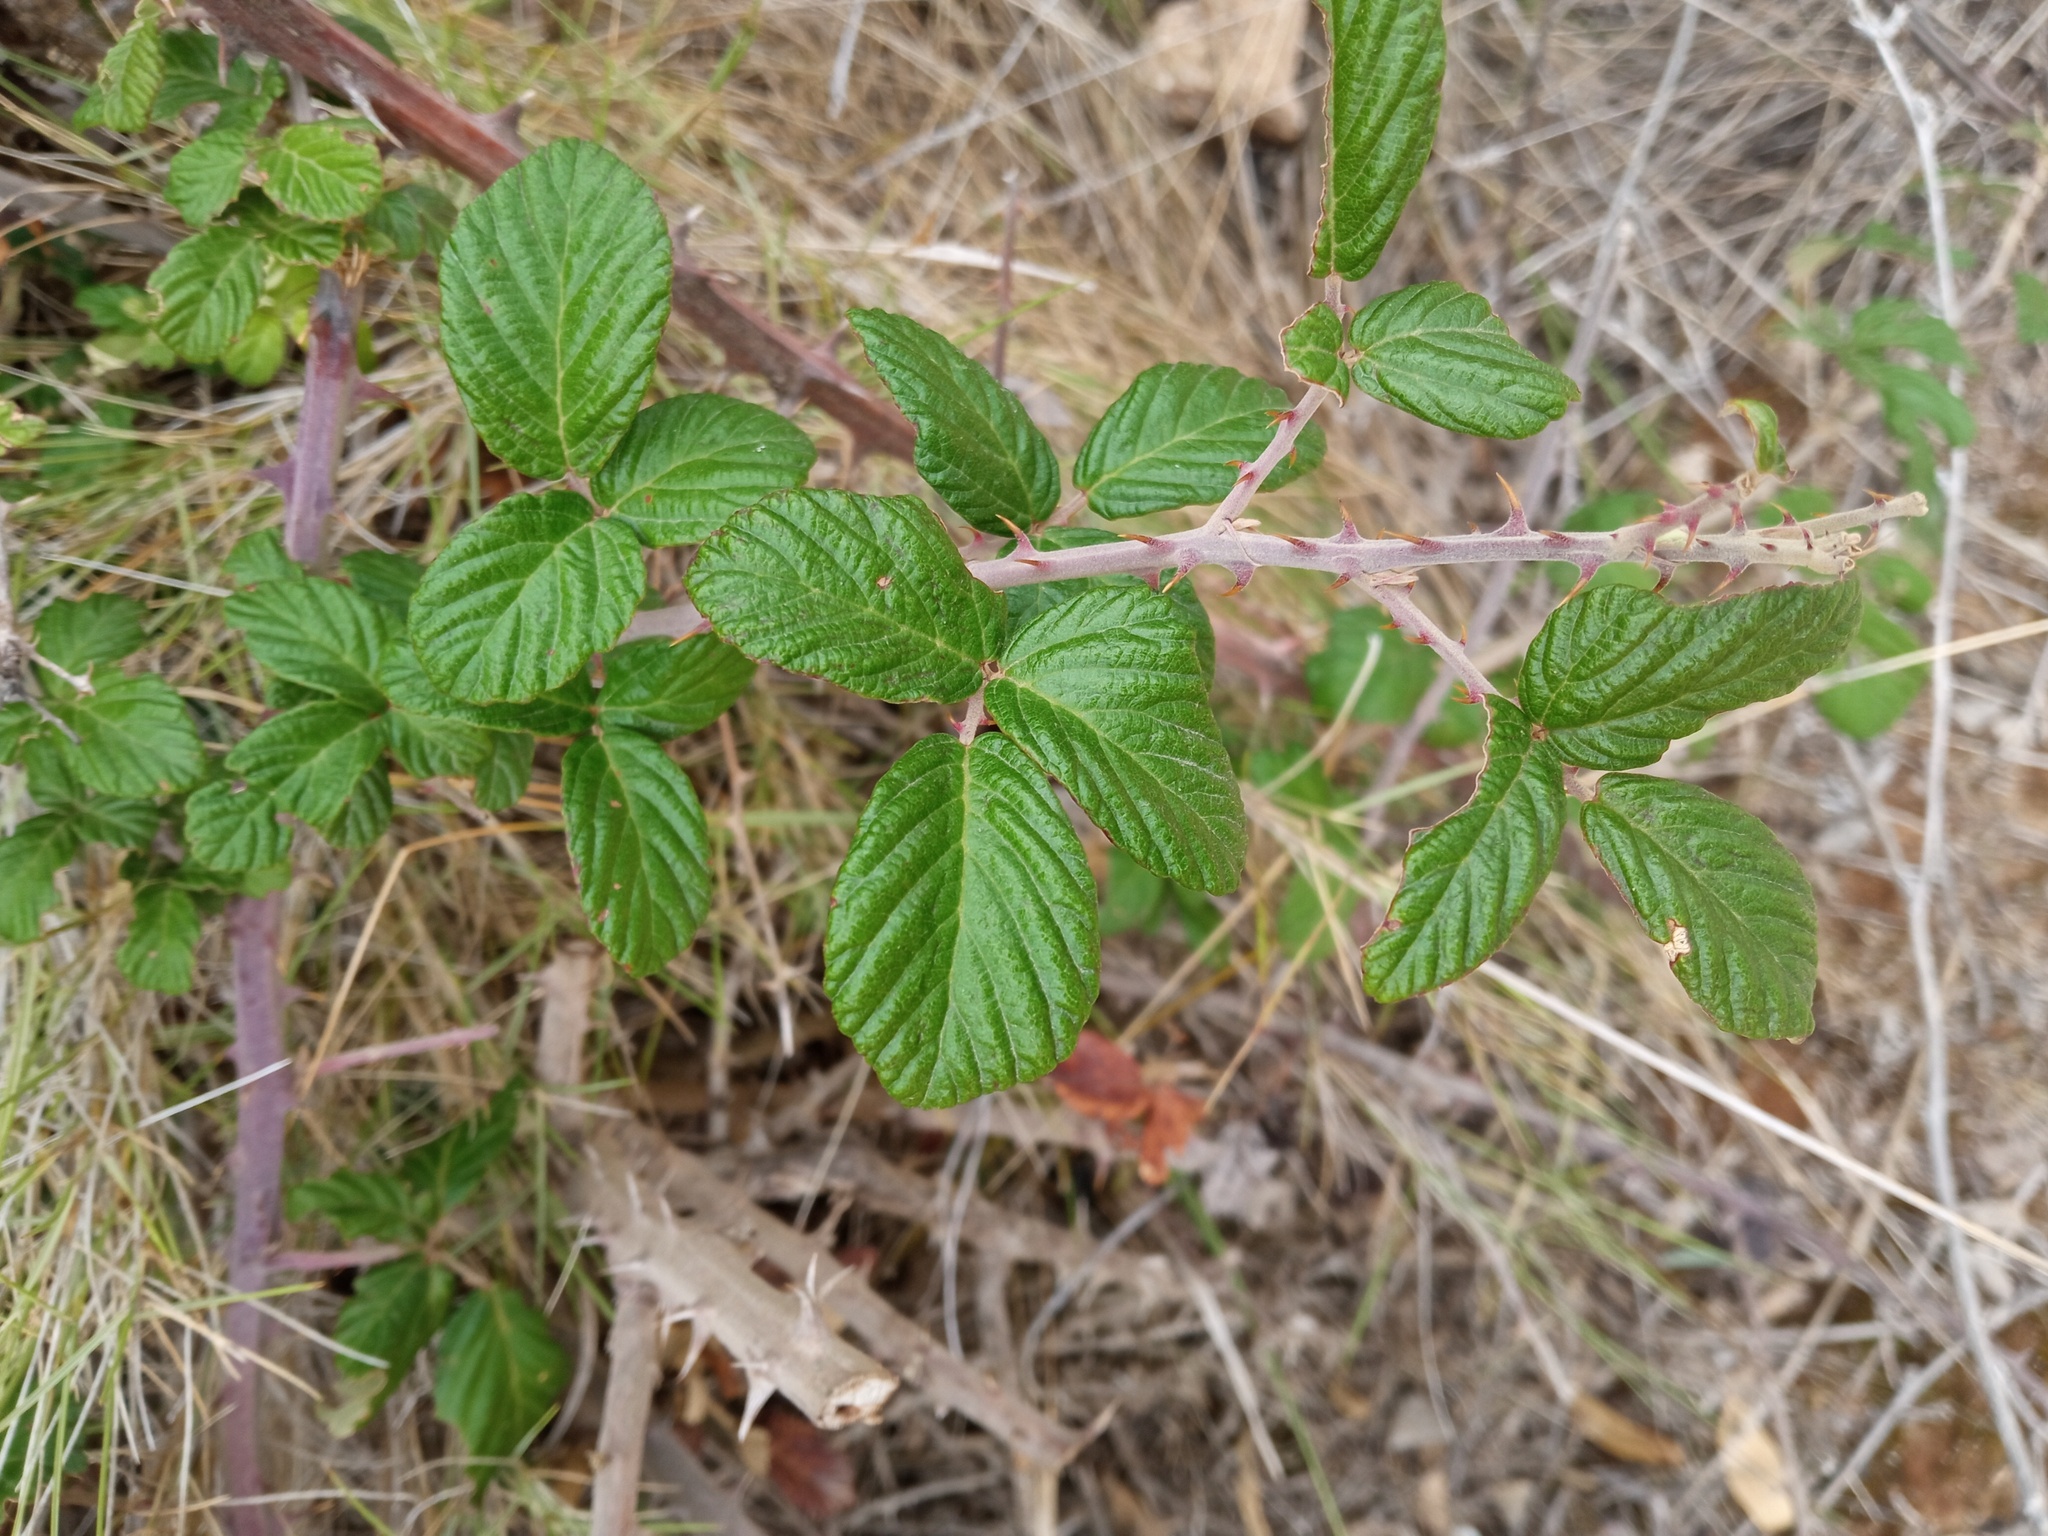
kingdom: Plantae
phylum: Tracheophyta
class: Magnoliopsida
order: Rosales
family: Rosaceae
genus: Rubus
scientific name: Rubus ulmifolius
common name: Elmleaf blackberry
